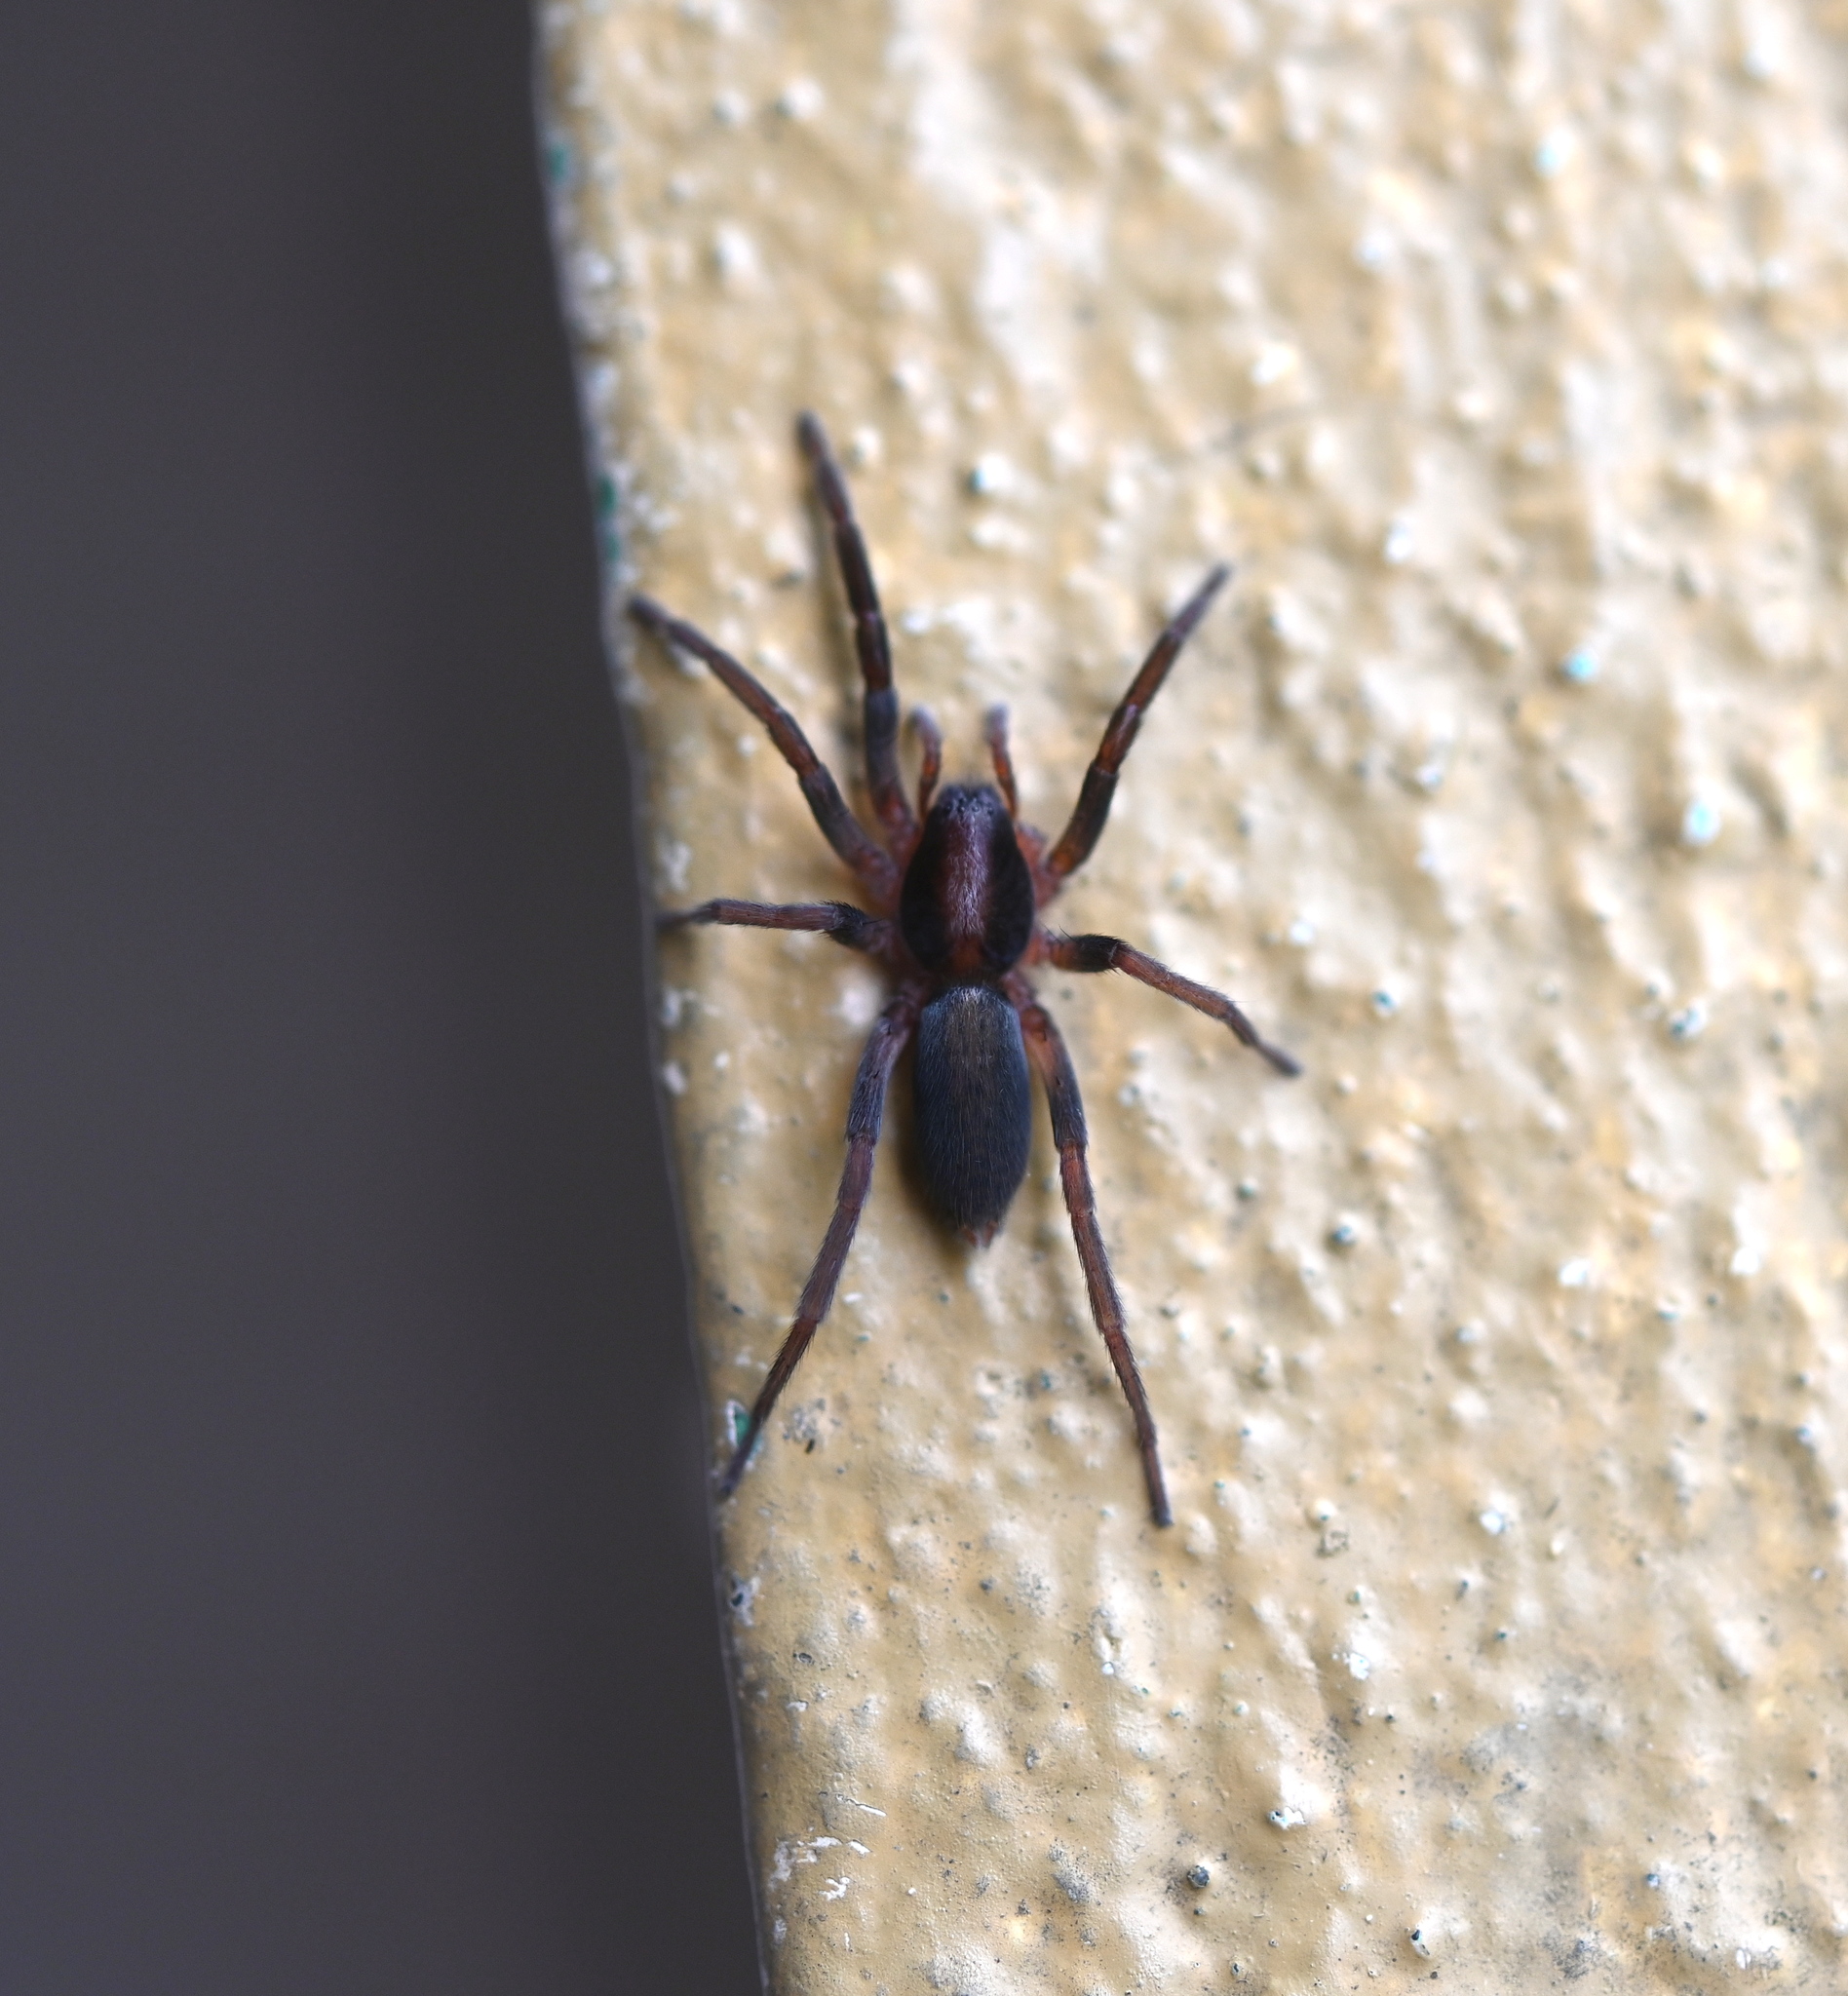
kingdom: Animalia
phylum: Arthropoda
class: Arachnida
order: Araneae
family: Miturgidae
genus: Teminius
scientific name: Teminius insularis
